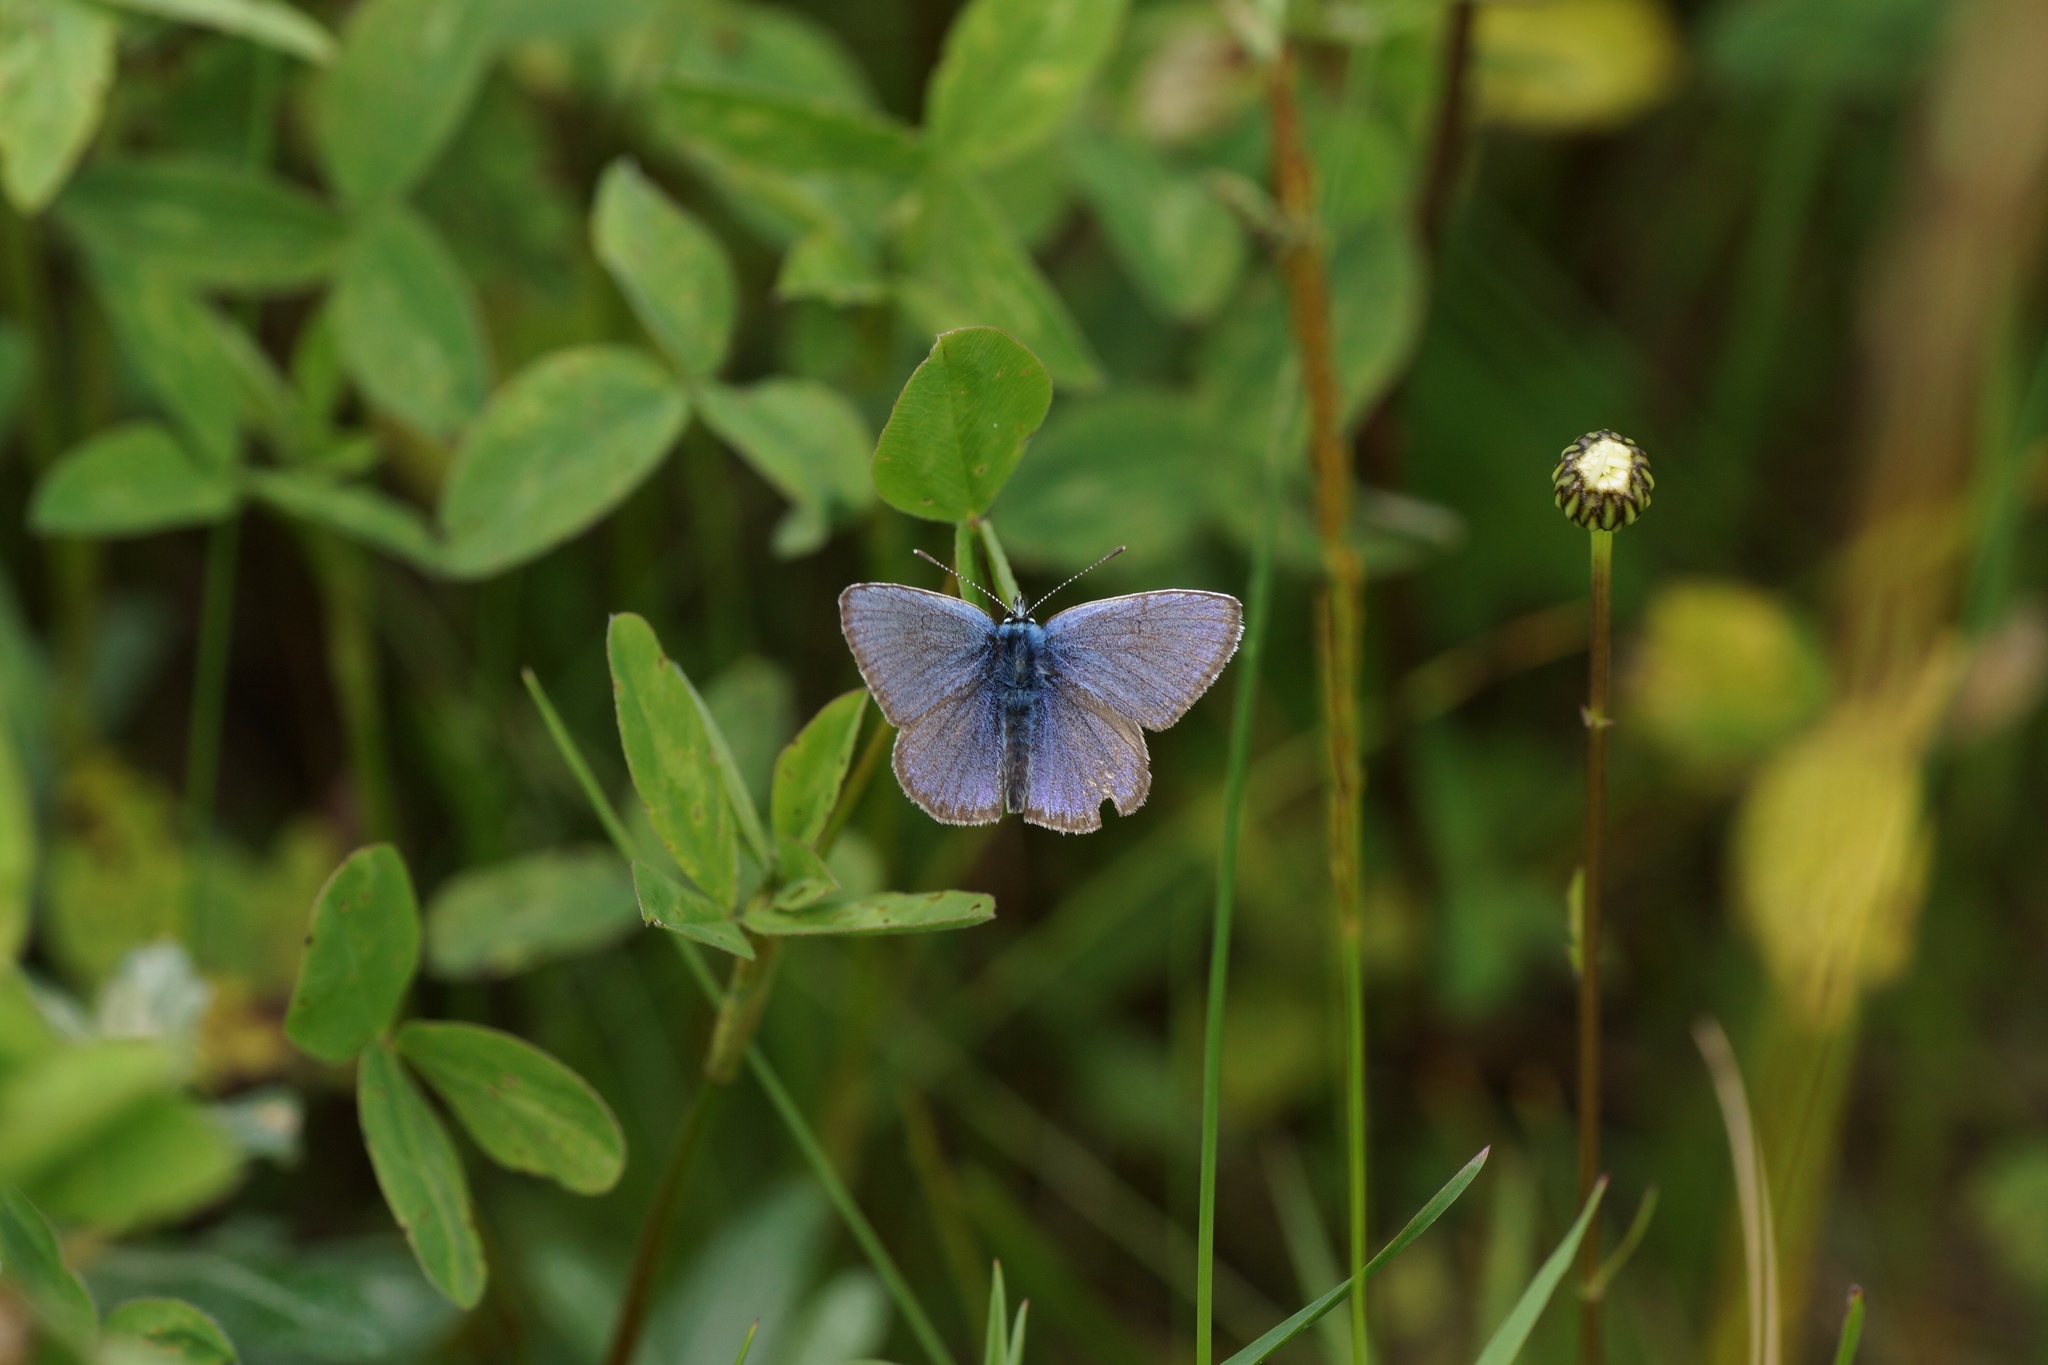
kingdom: Animalia
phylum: Arthropoda
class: Insecta
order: Lepidoptera
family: Lycaenidae
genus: Cyaniris
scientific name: Cyaniris semiargus
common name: Mazarine blue
